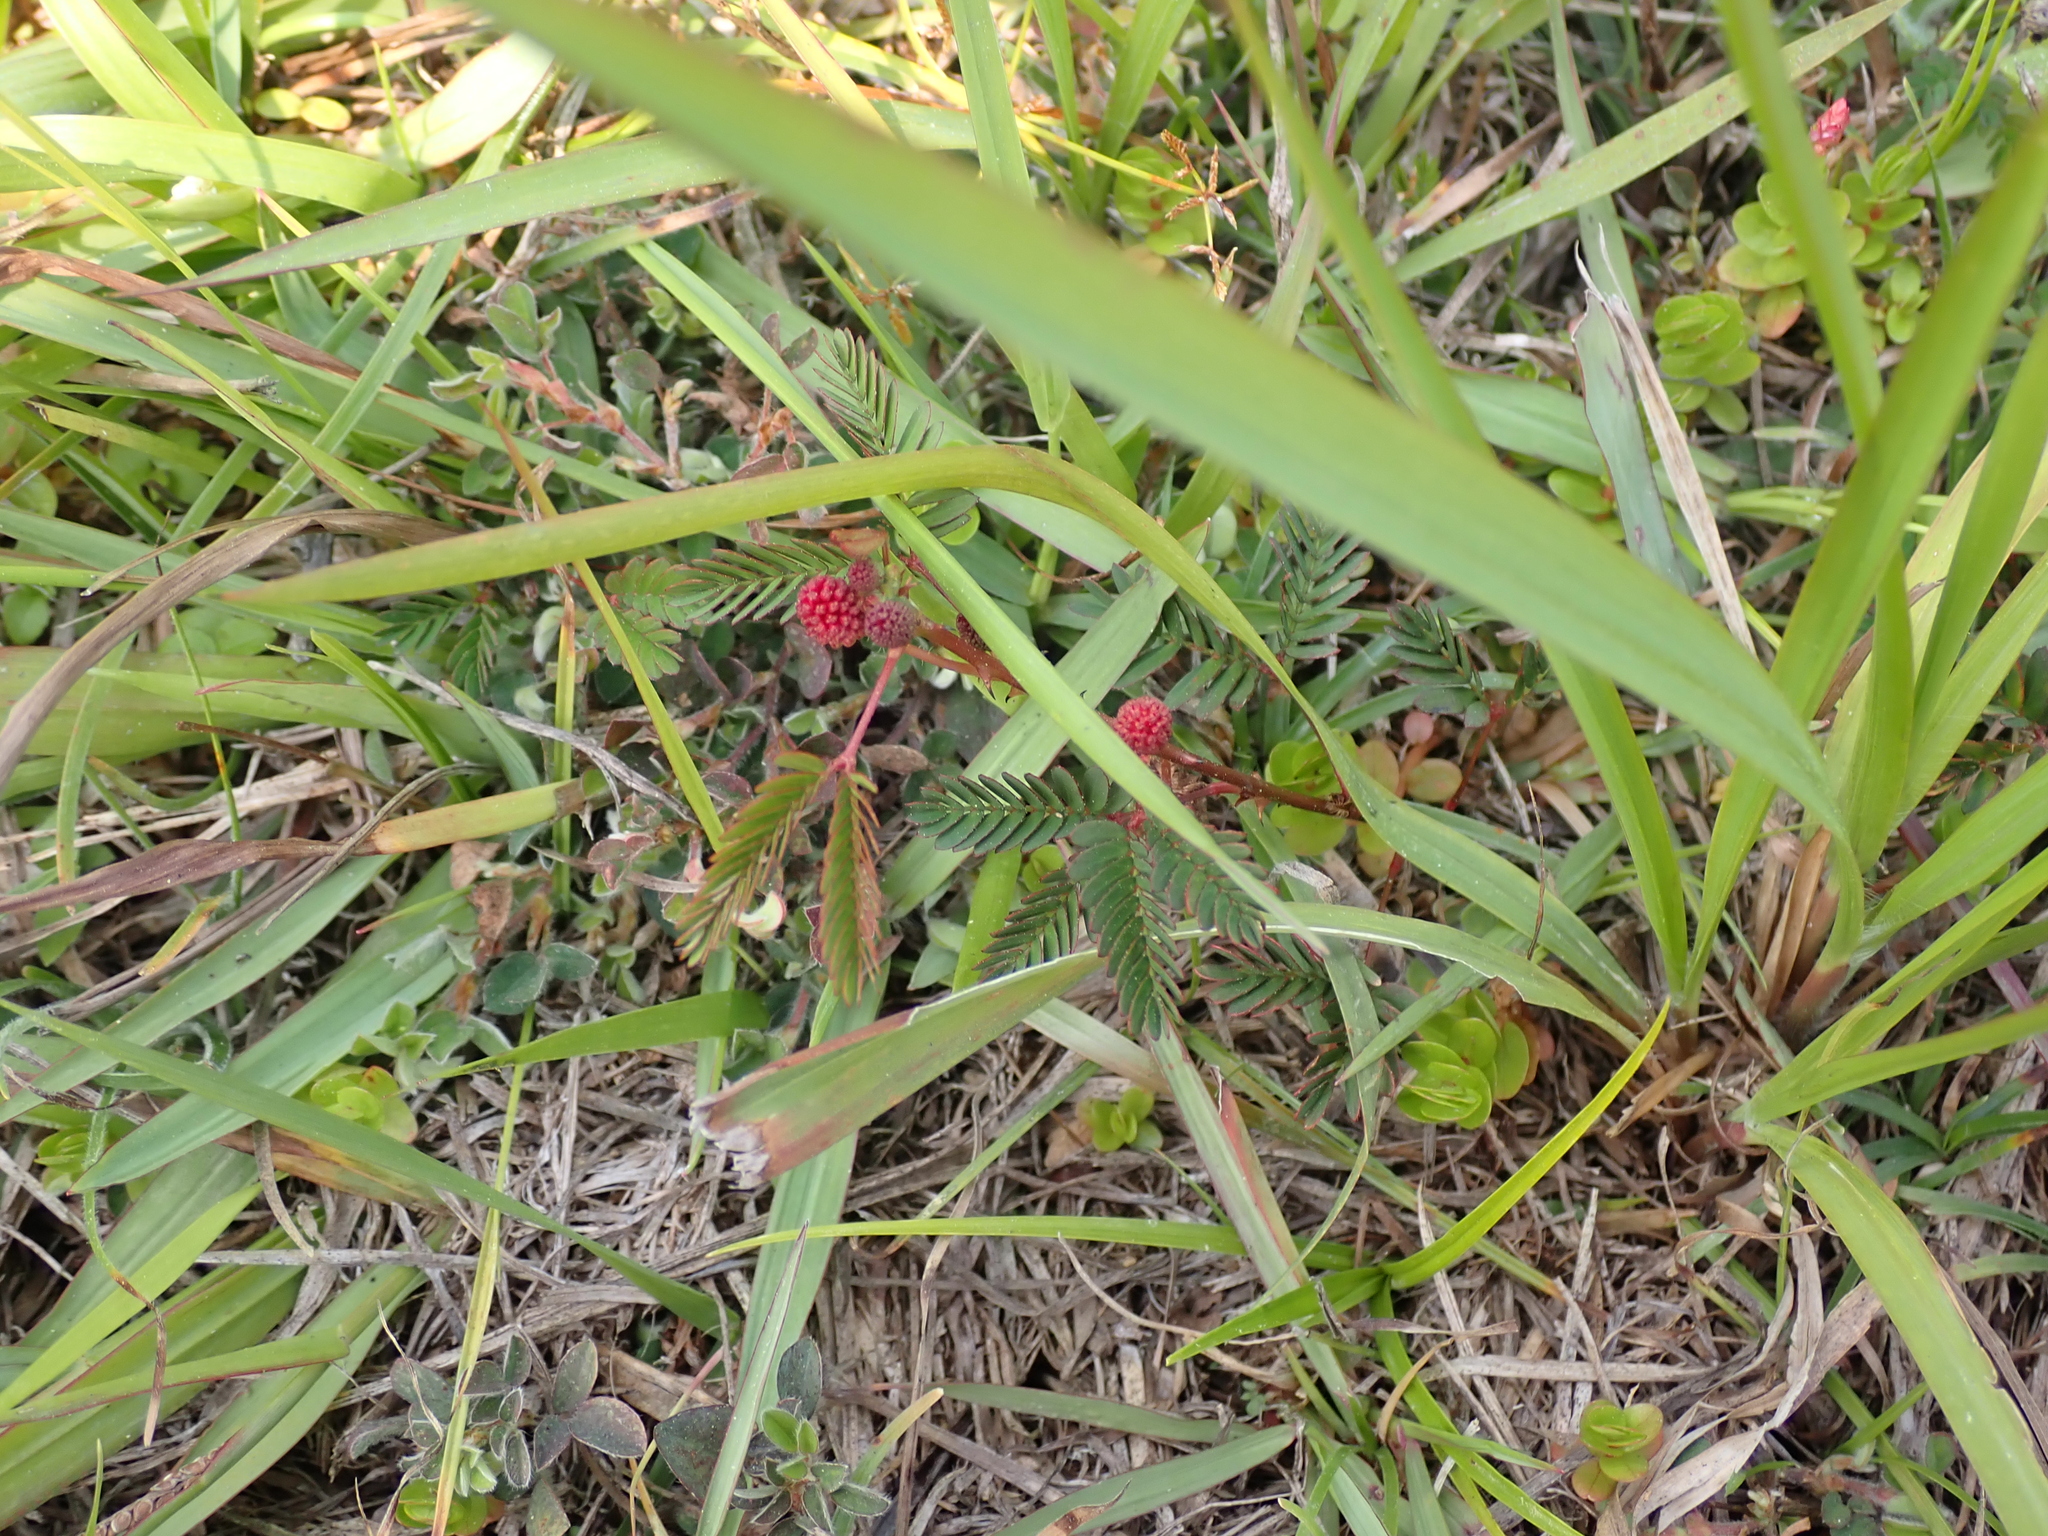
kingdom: Plantae
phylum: Tracheophyta
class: Magnoliopsida
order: Fabales
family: Fabaceae
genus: Mimosa
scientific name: Mimosa pudica
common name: Sensitive plant
